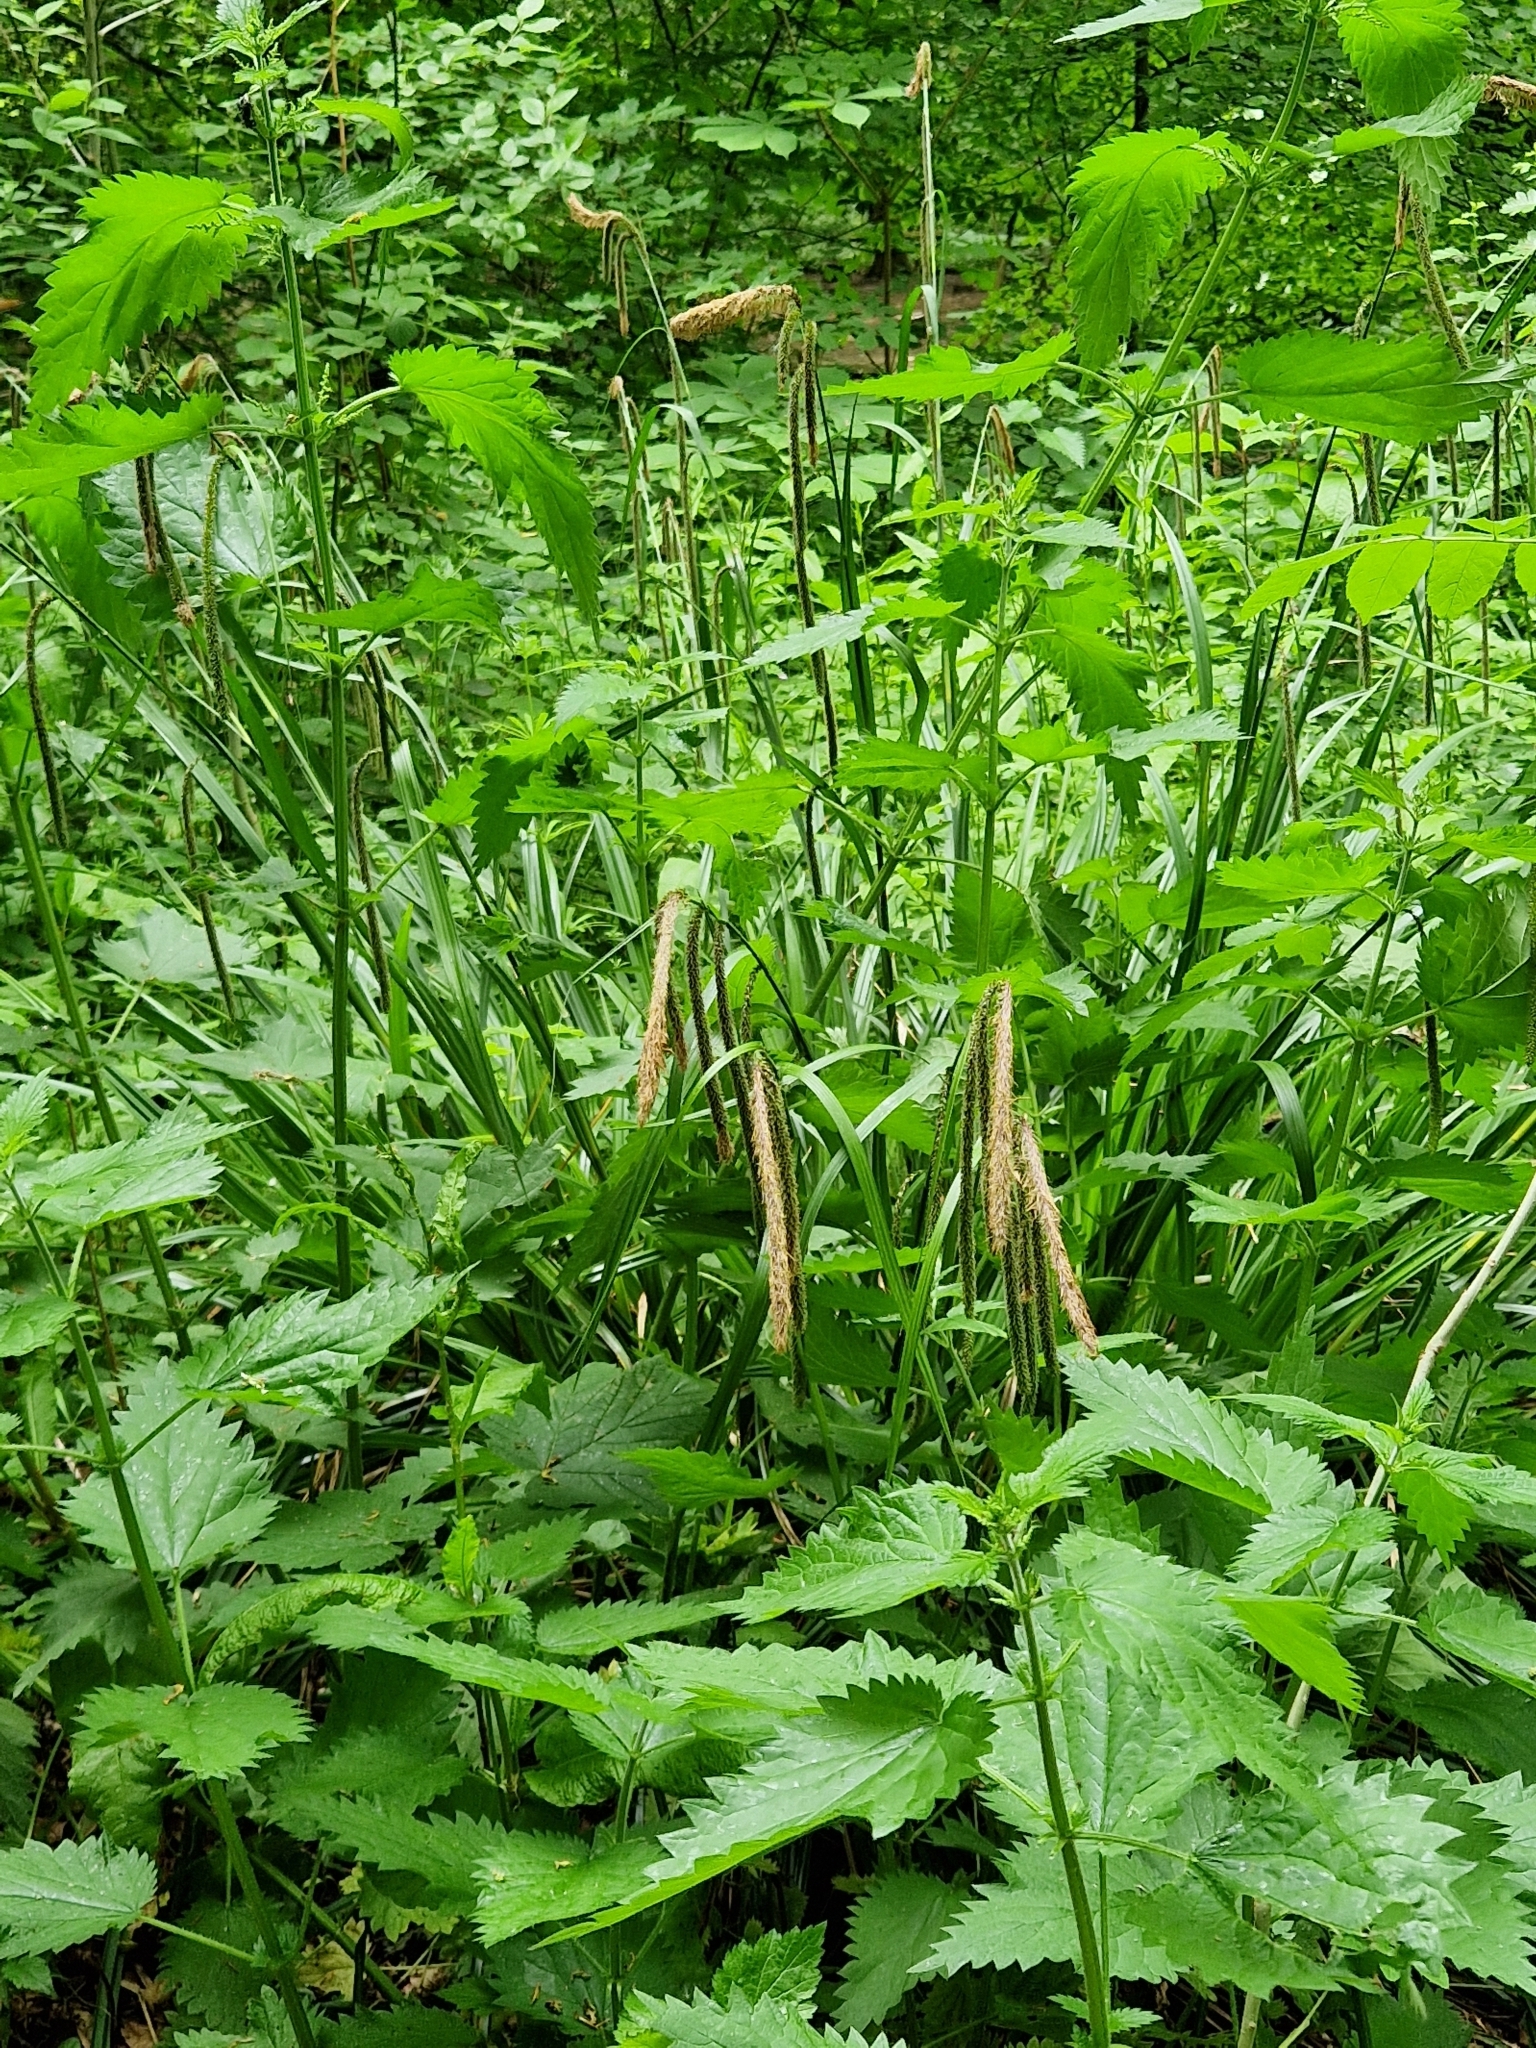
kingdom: Plantae
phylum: Tracheophyta
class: Liliopsida
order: Poales
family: Cyperaceae
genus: Carex
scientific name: Carex pendula
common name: Pendulous sedge
